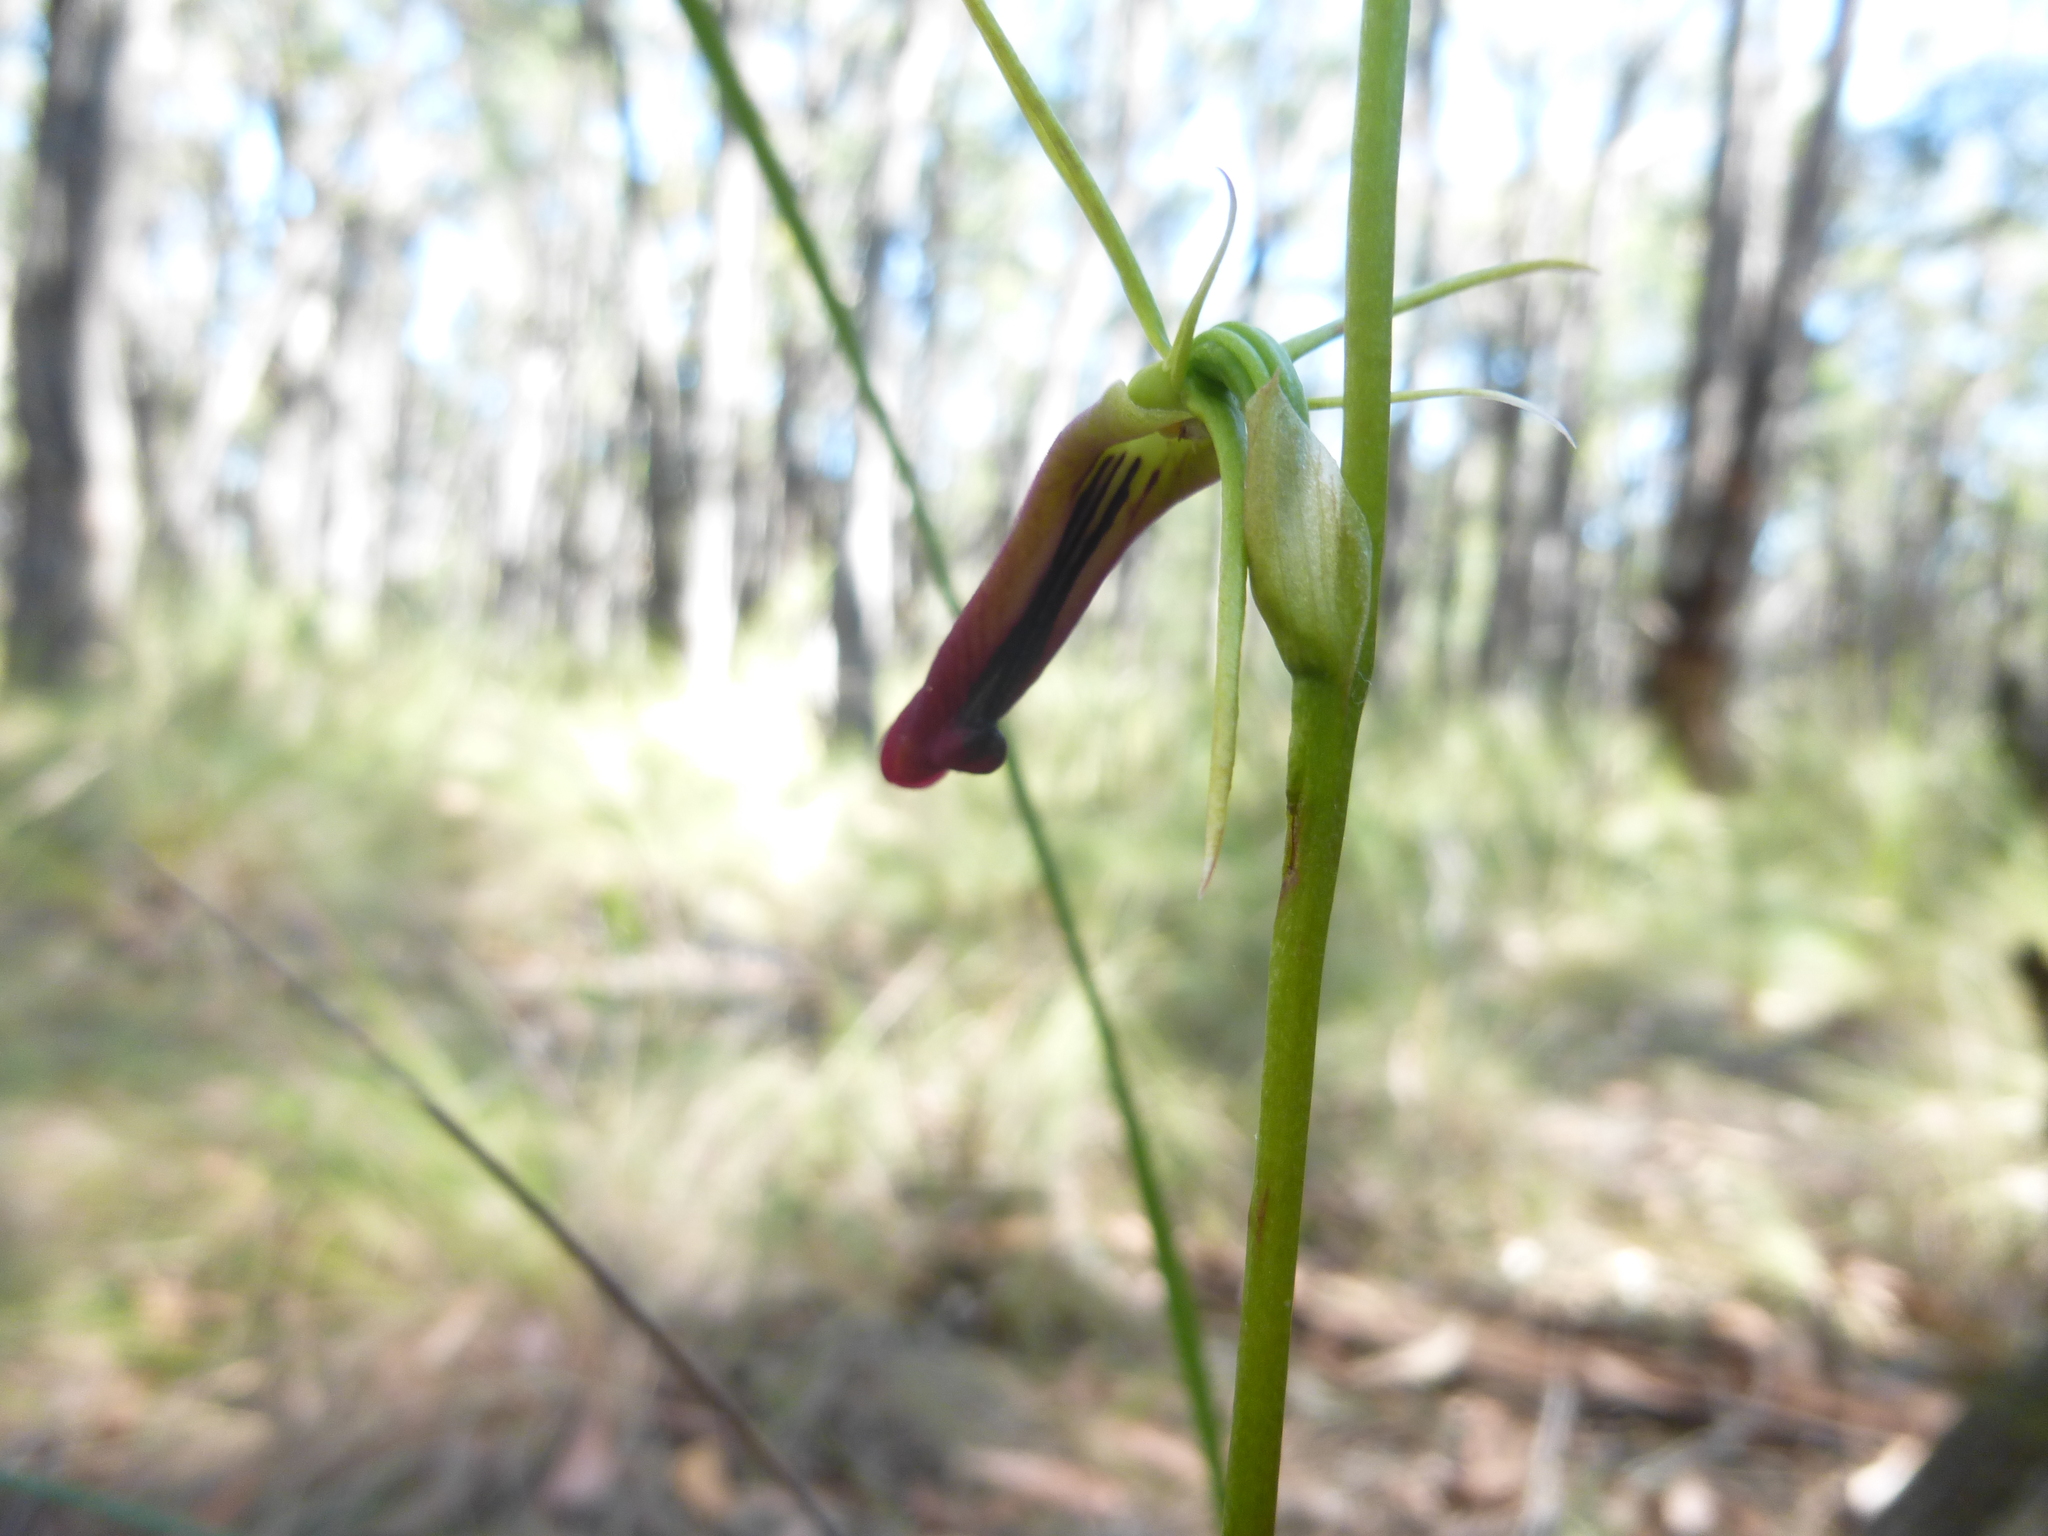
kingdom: Plantae
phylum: Tracheophyta
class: Liliopsida
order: Asparagales
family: Orchidaceae
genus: Cryptostylis
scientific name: Cryptostylis subulata
